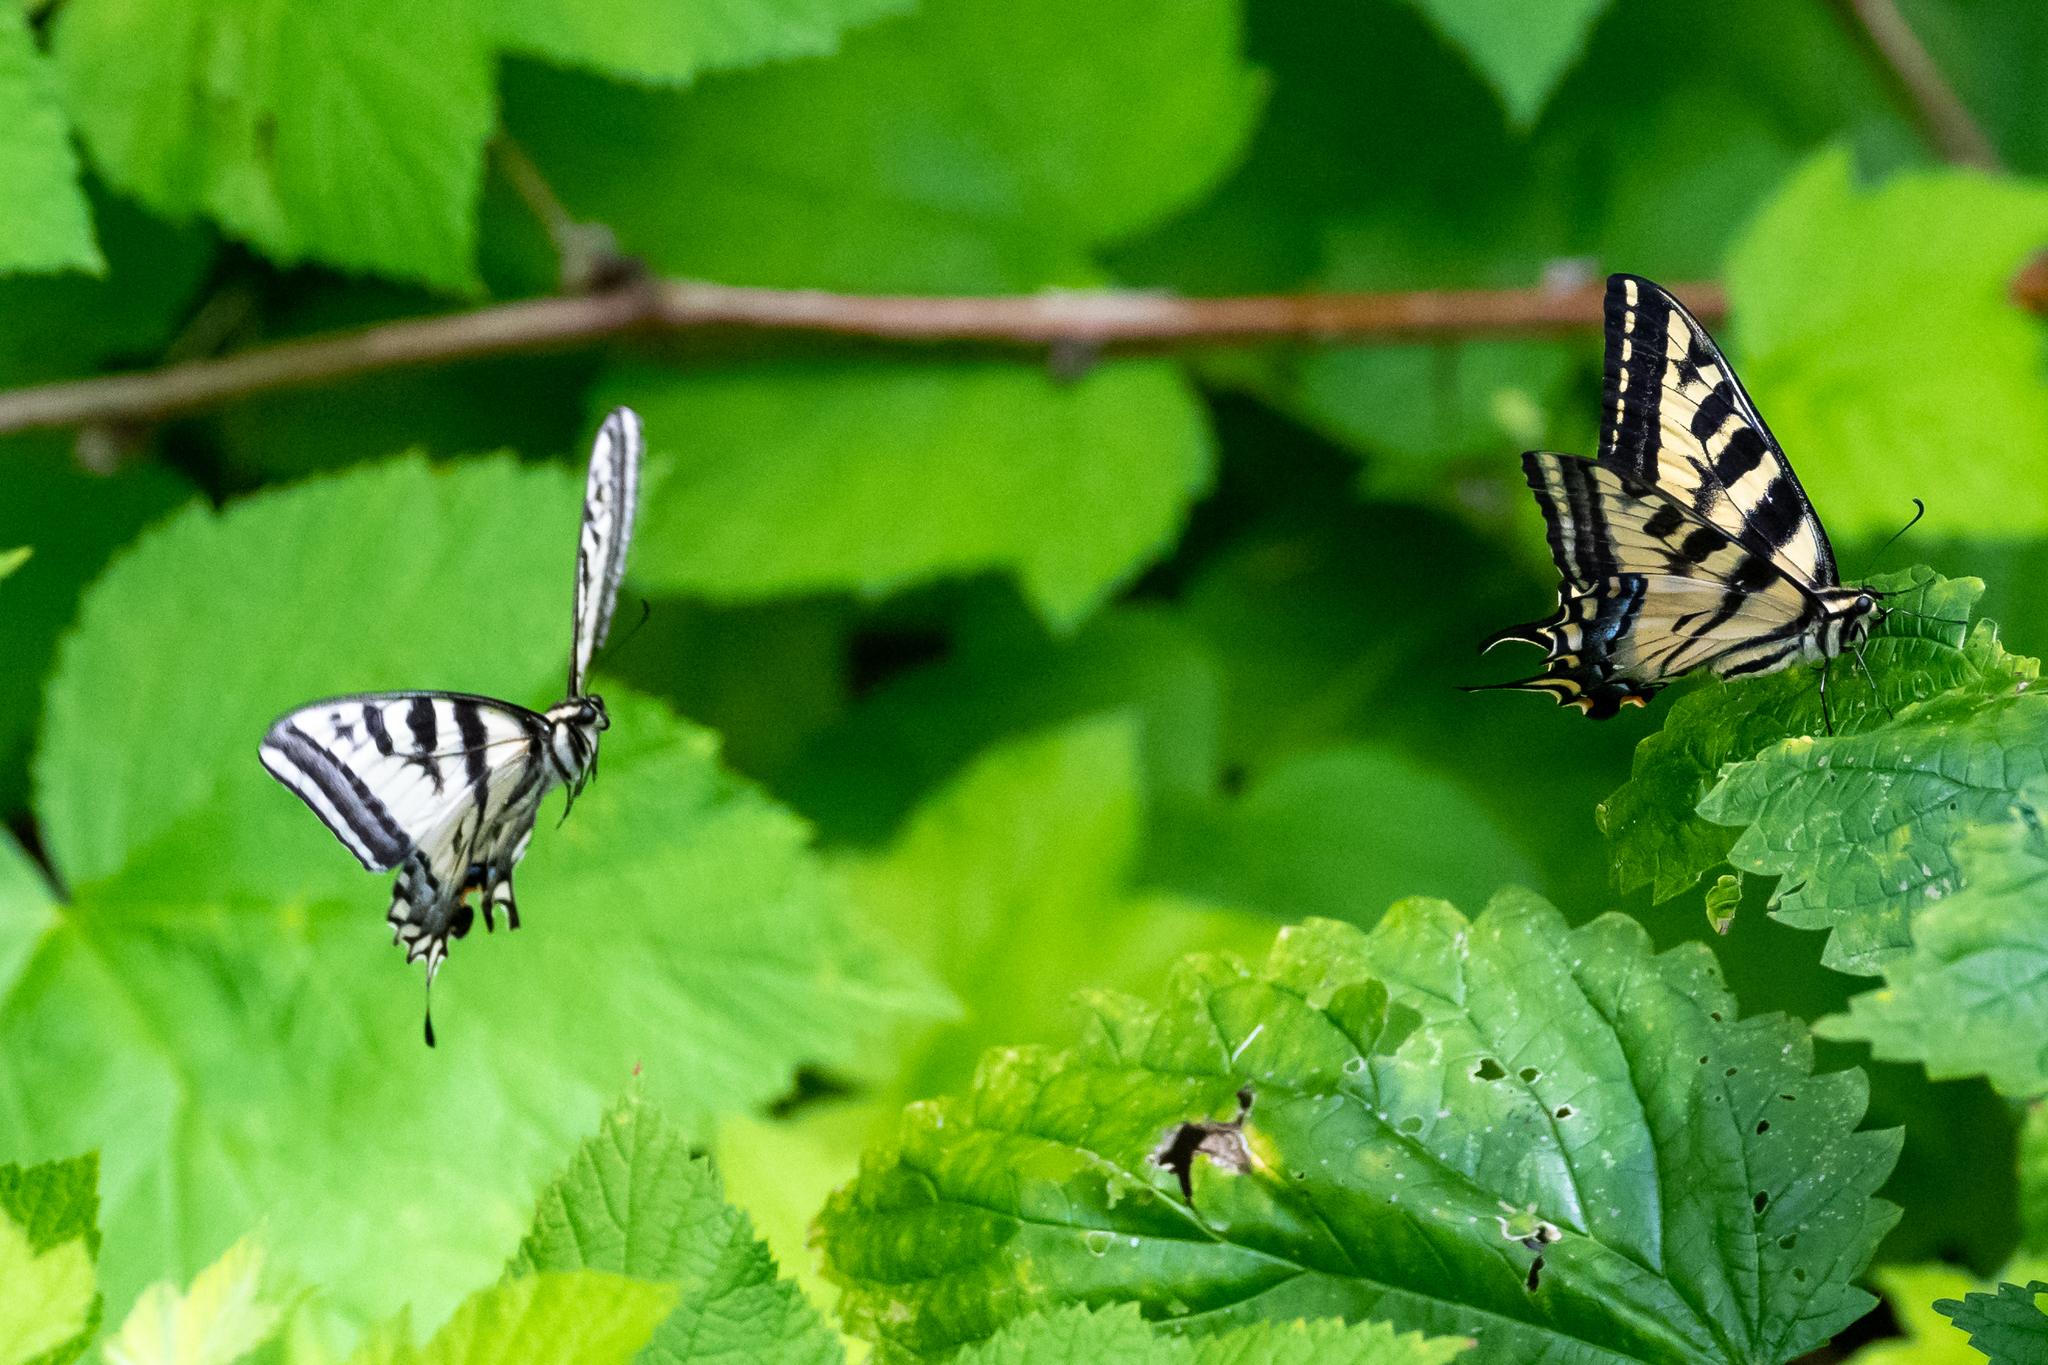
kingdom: Animalia
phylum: Arthropoda
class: Insecta
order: Lepidoptera
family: Papilionidae
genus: Papilio
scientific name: Papilio rutulus
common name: Western tiger swallowtail
